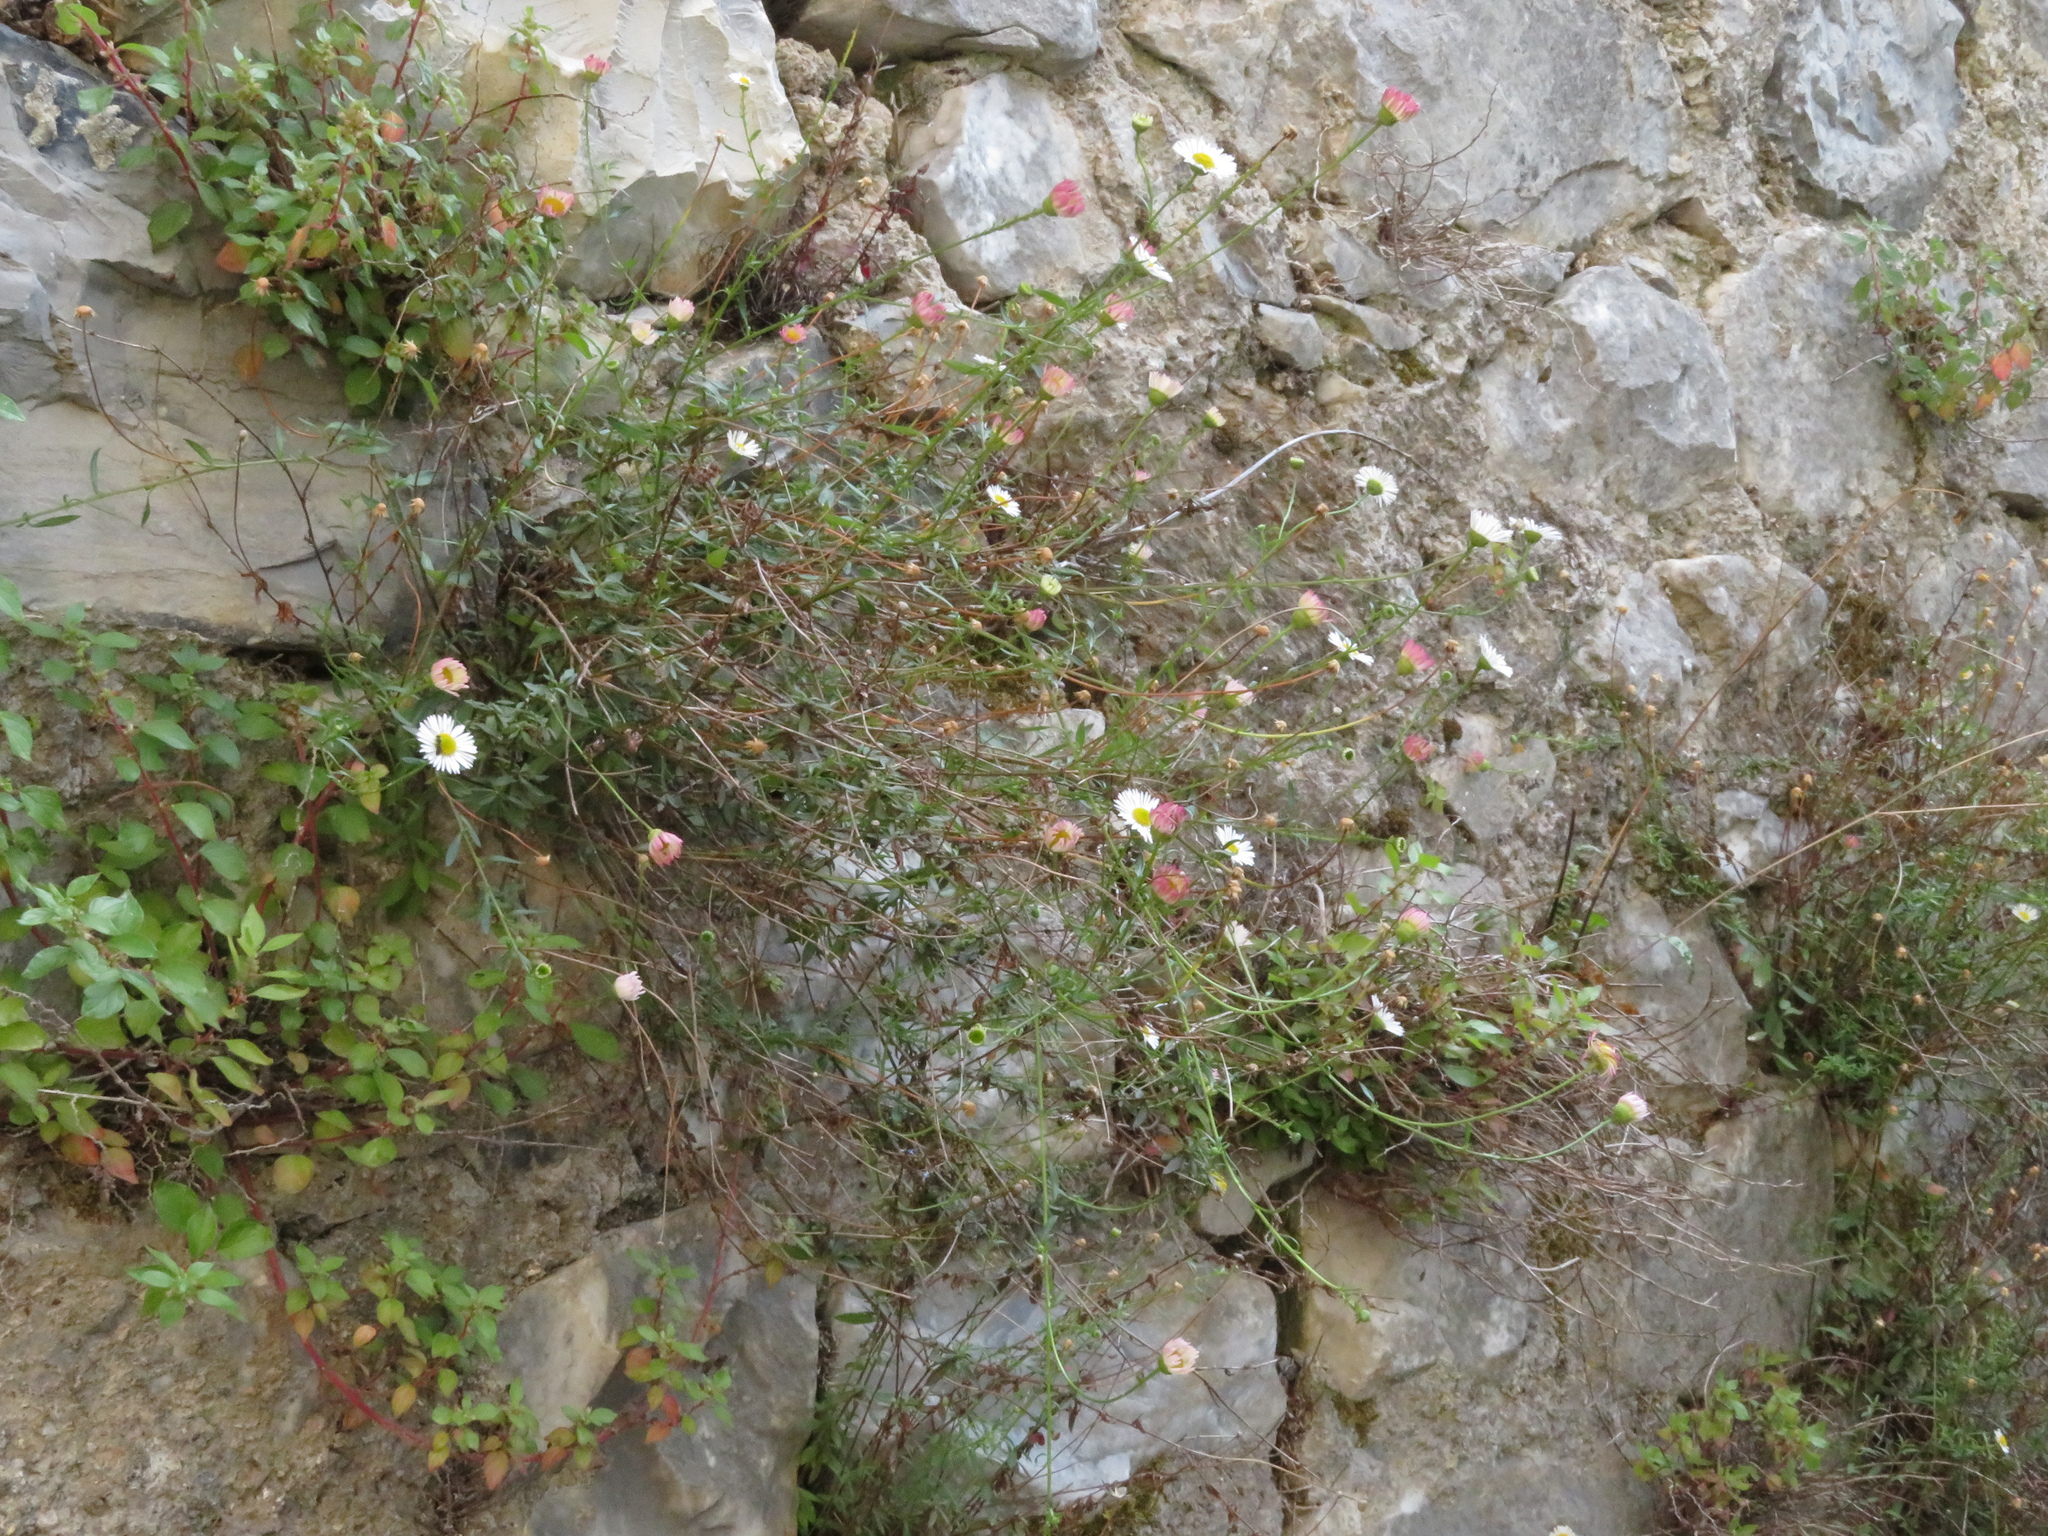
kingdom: Plantae
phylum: Tracheophyta
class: Magnoliopsida
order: Asterales
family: Asteraceae
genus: Erigeron
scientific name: Erigeron karvinskianus
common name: Mexican fleabane
